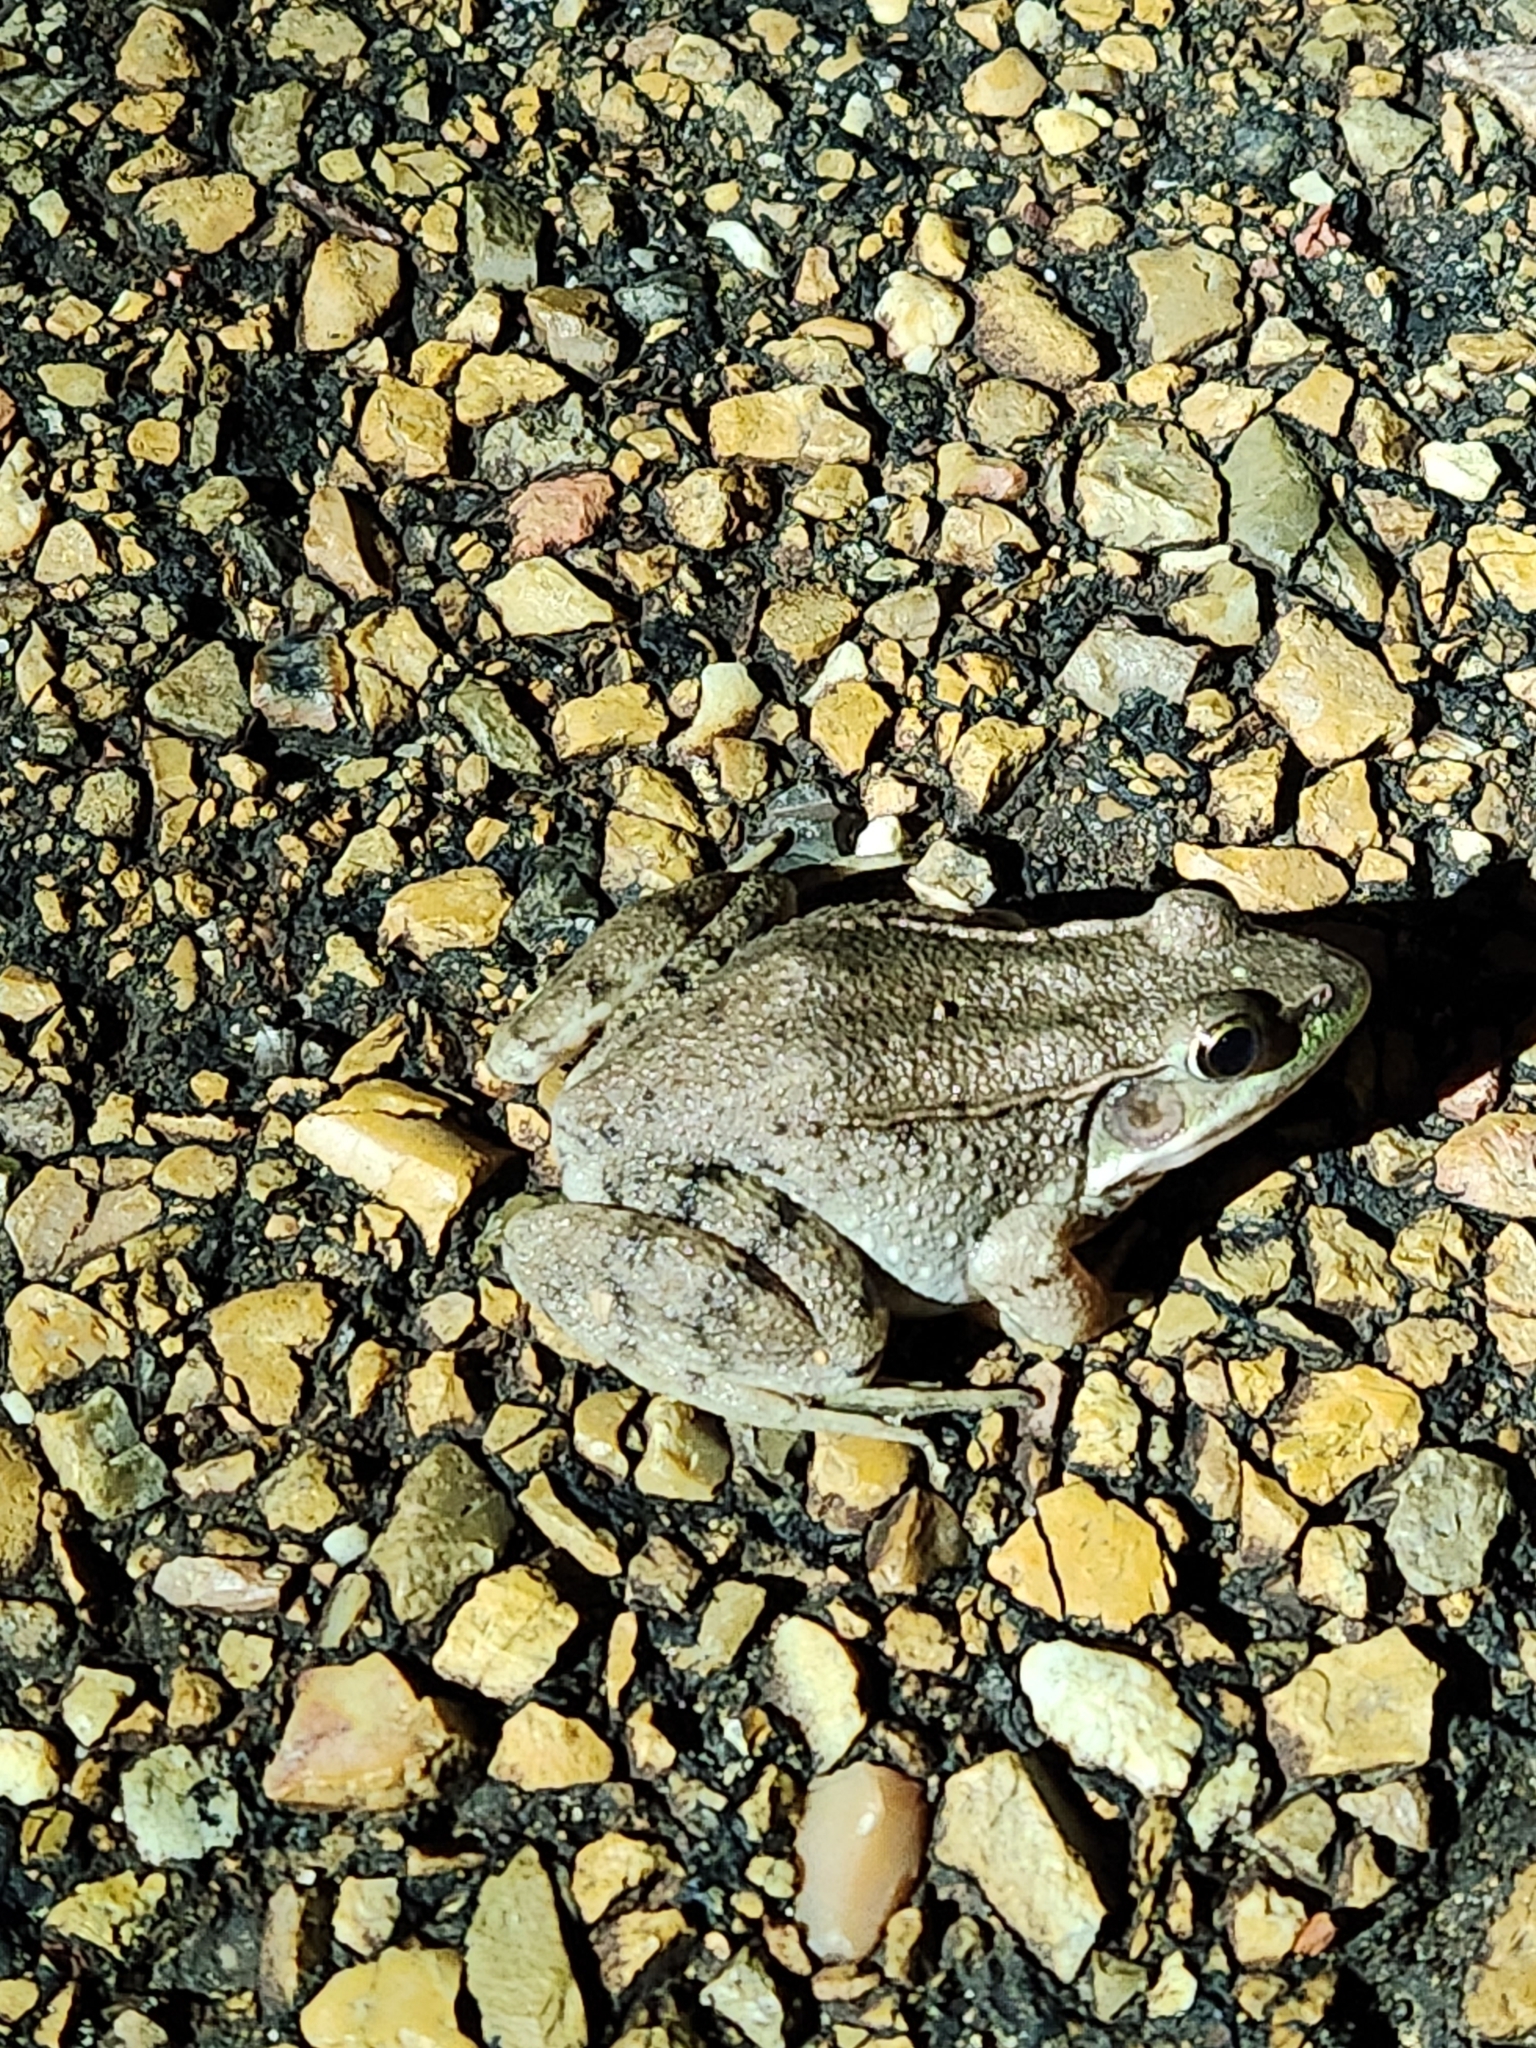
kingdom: Animalia
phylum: Chordata
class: Amphibia
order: Anura
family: Ranidae
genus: Lithobates
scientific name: Lithobates clamitans
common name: Green frog
